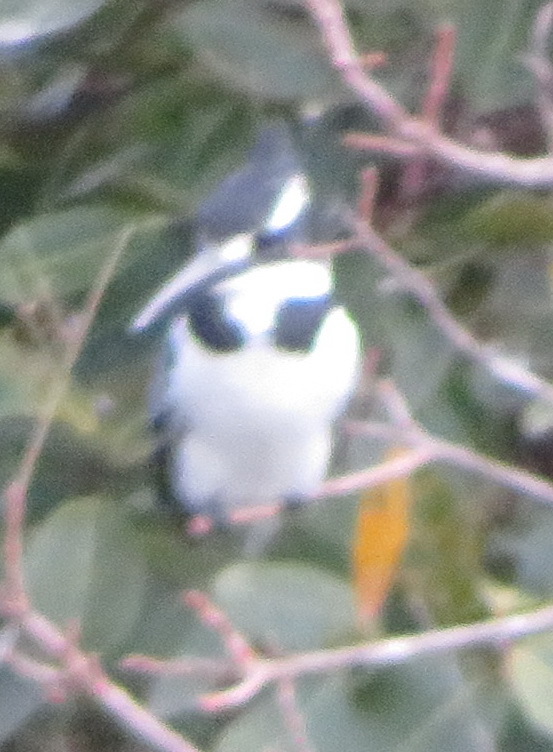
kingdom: Animalia
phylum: Chordata
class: Aves
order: Coraciiformes
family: Alcedinidae
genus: Ceryle
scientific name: Ceryle rudis
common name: Pied kingfisher
